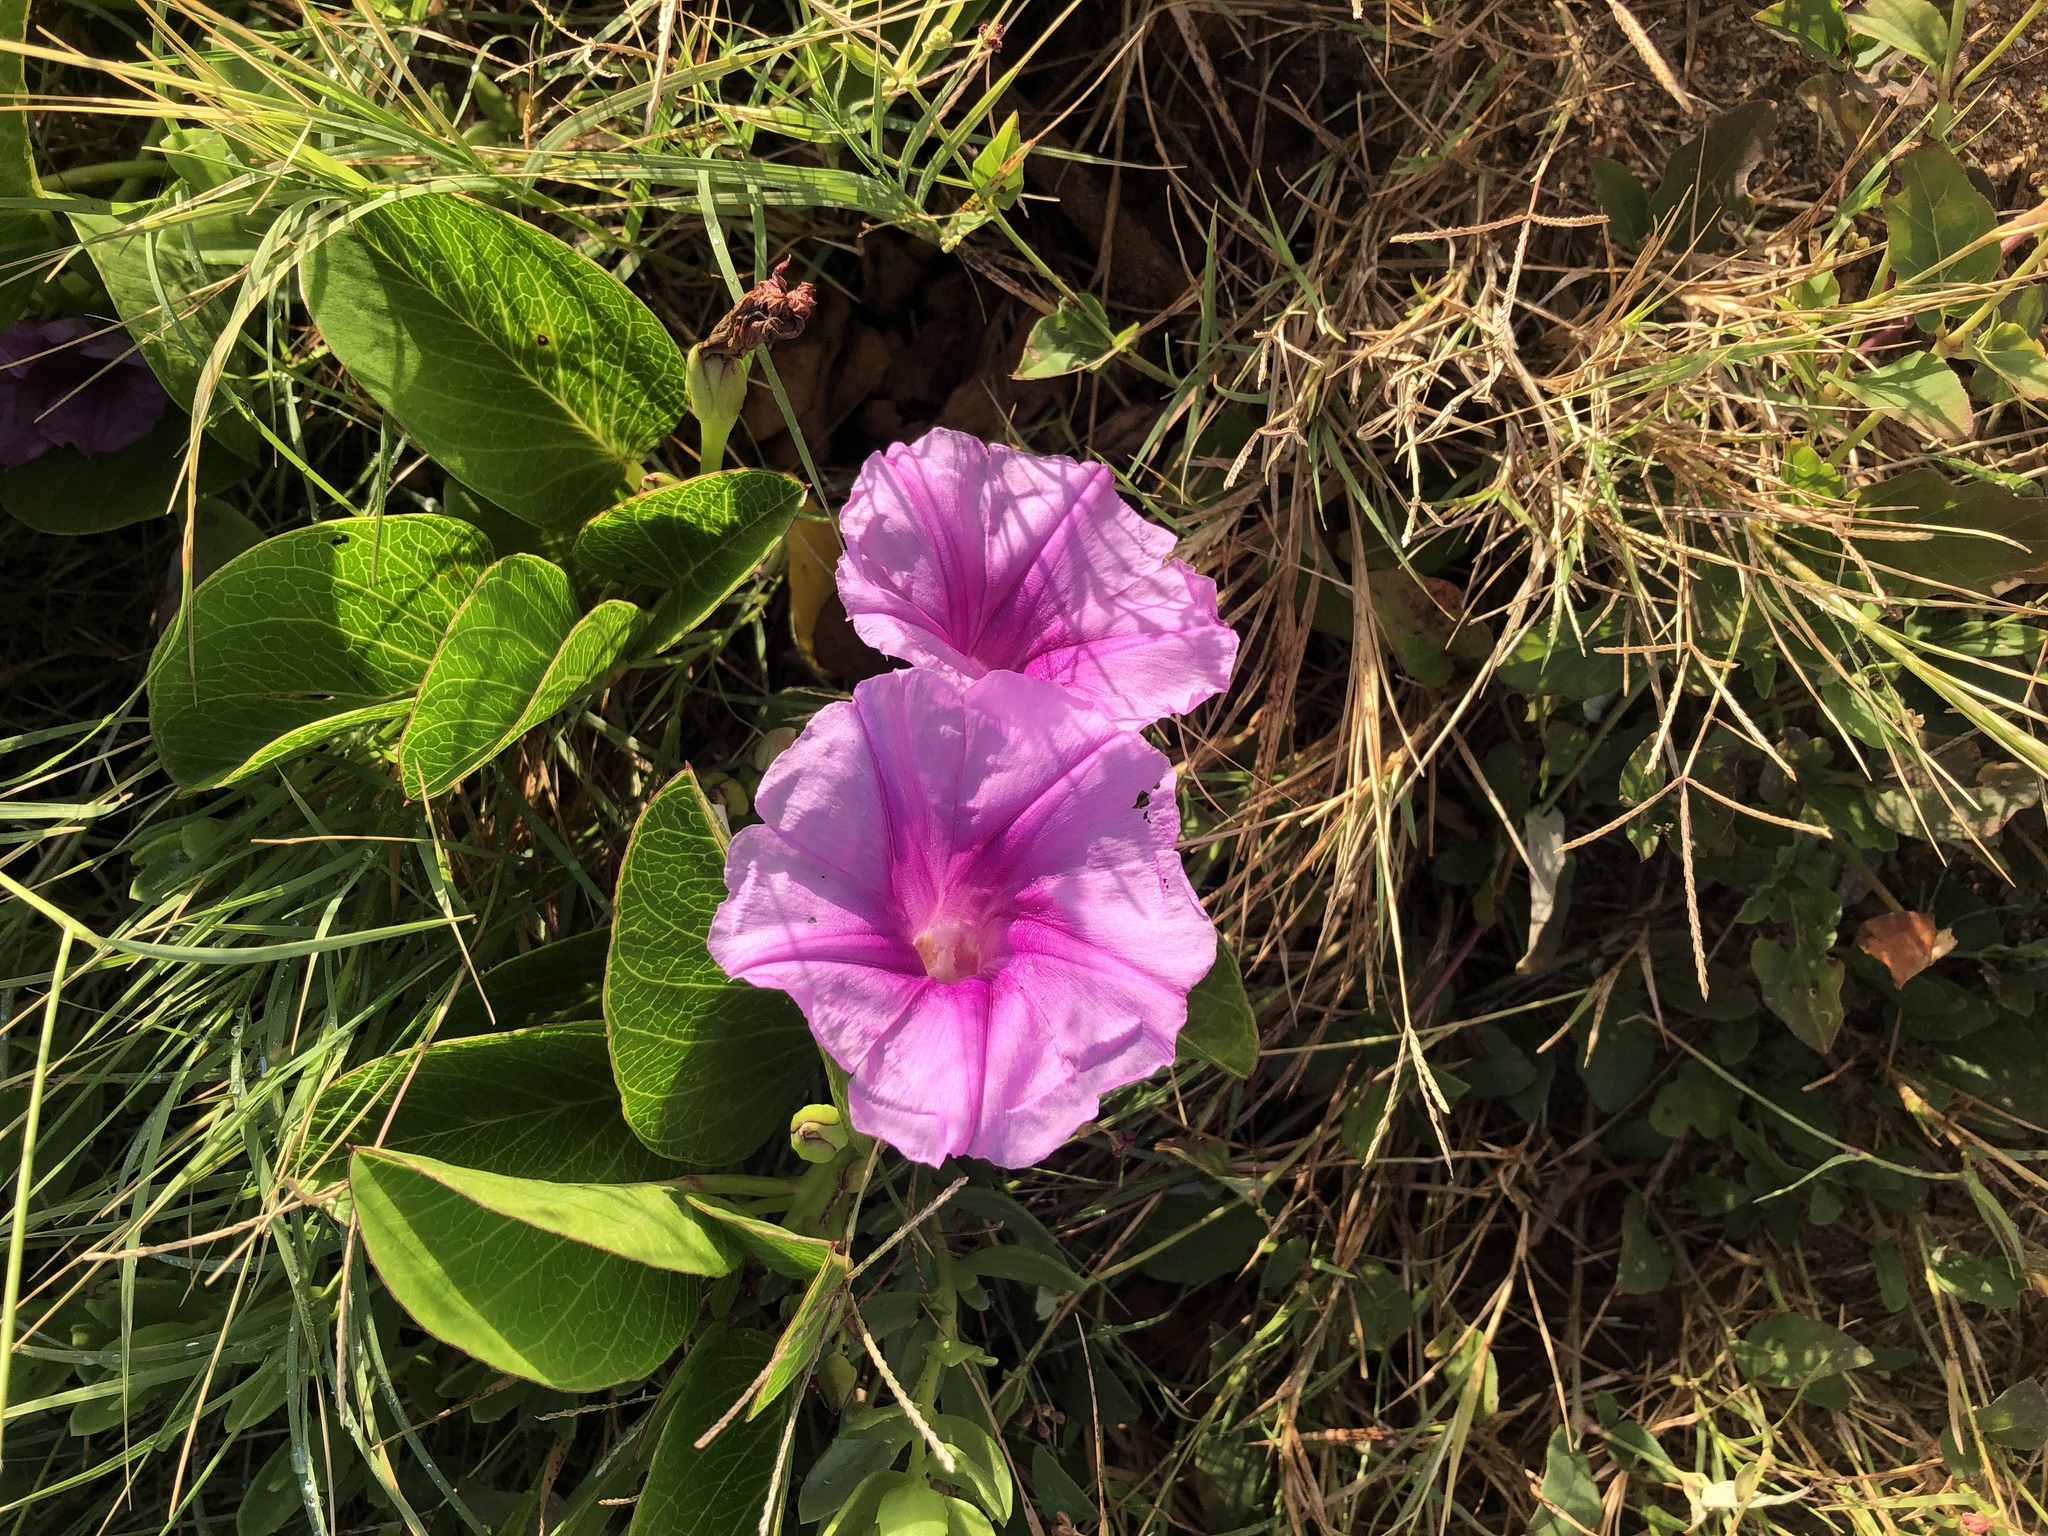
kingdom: Plantae
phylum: Tracheophyta
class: Magnoliopsida
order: Solanales
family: Convolvulaceae
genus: Ipomoea
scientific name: Ipomoea pes-caprae
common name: Beach morning glory
